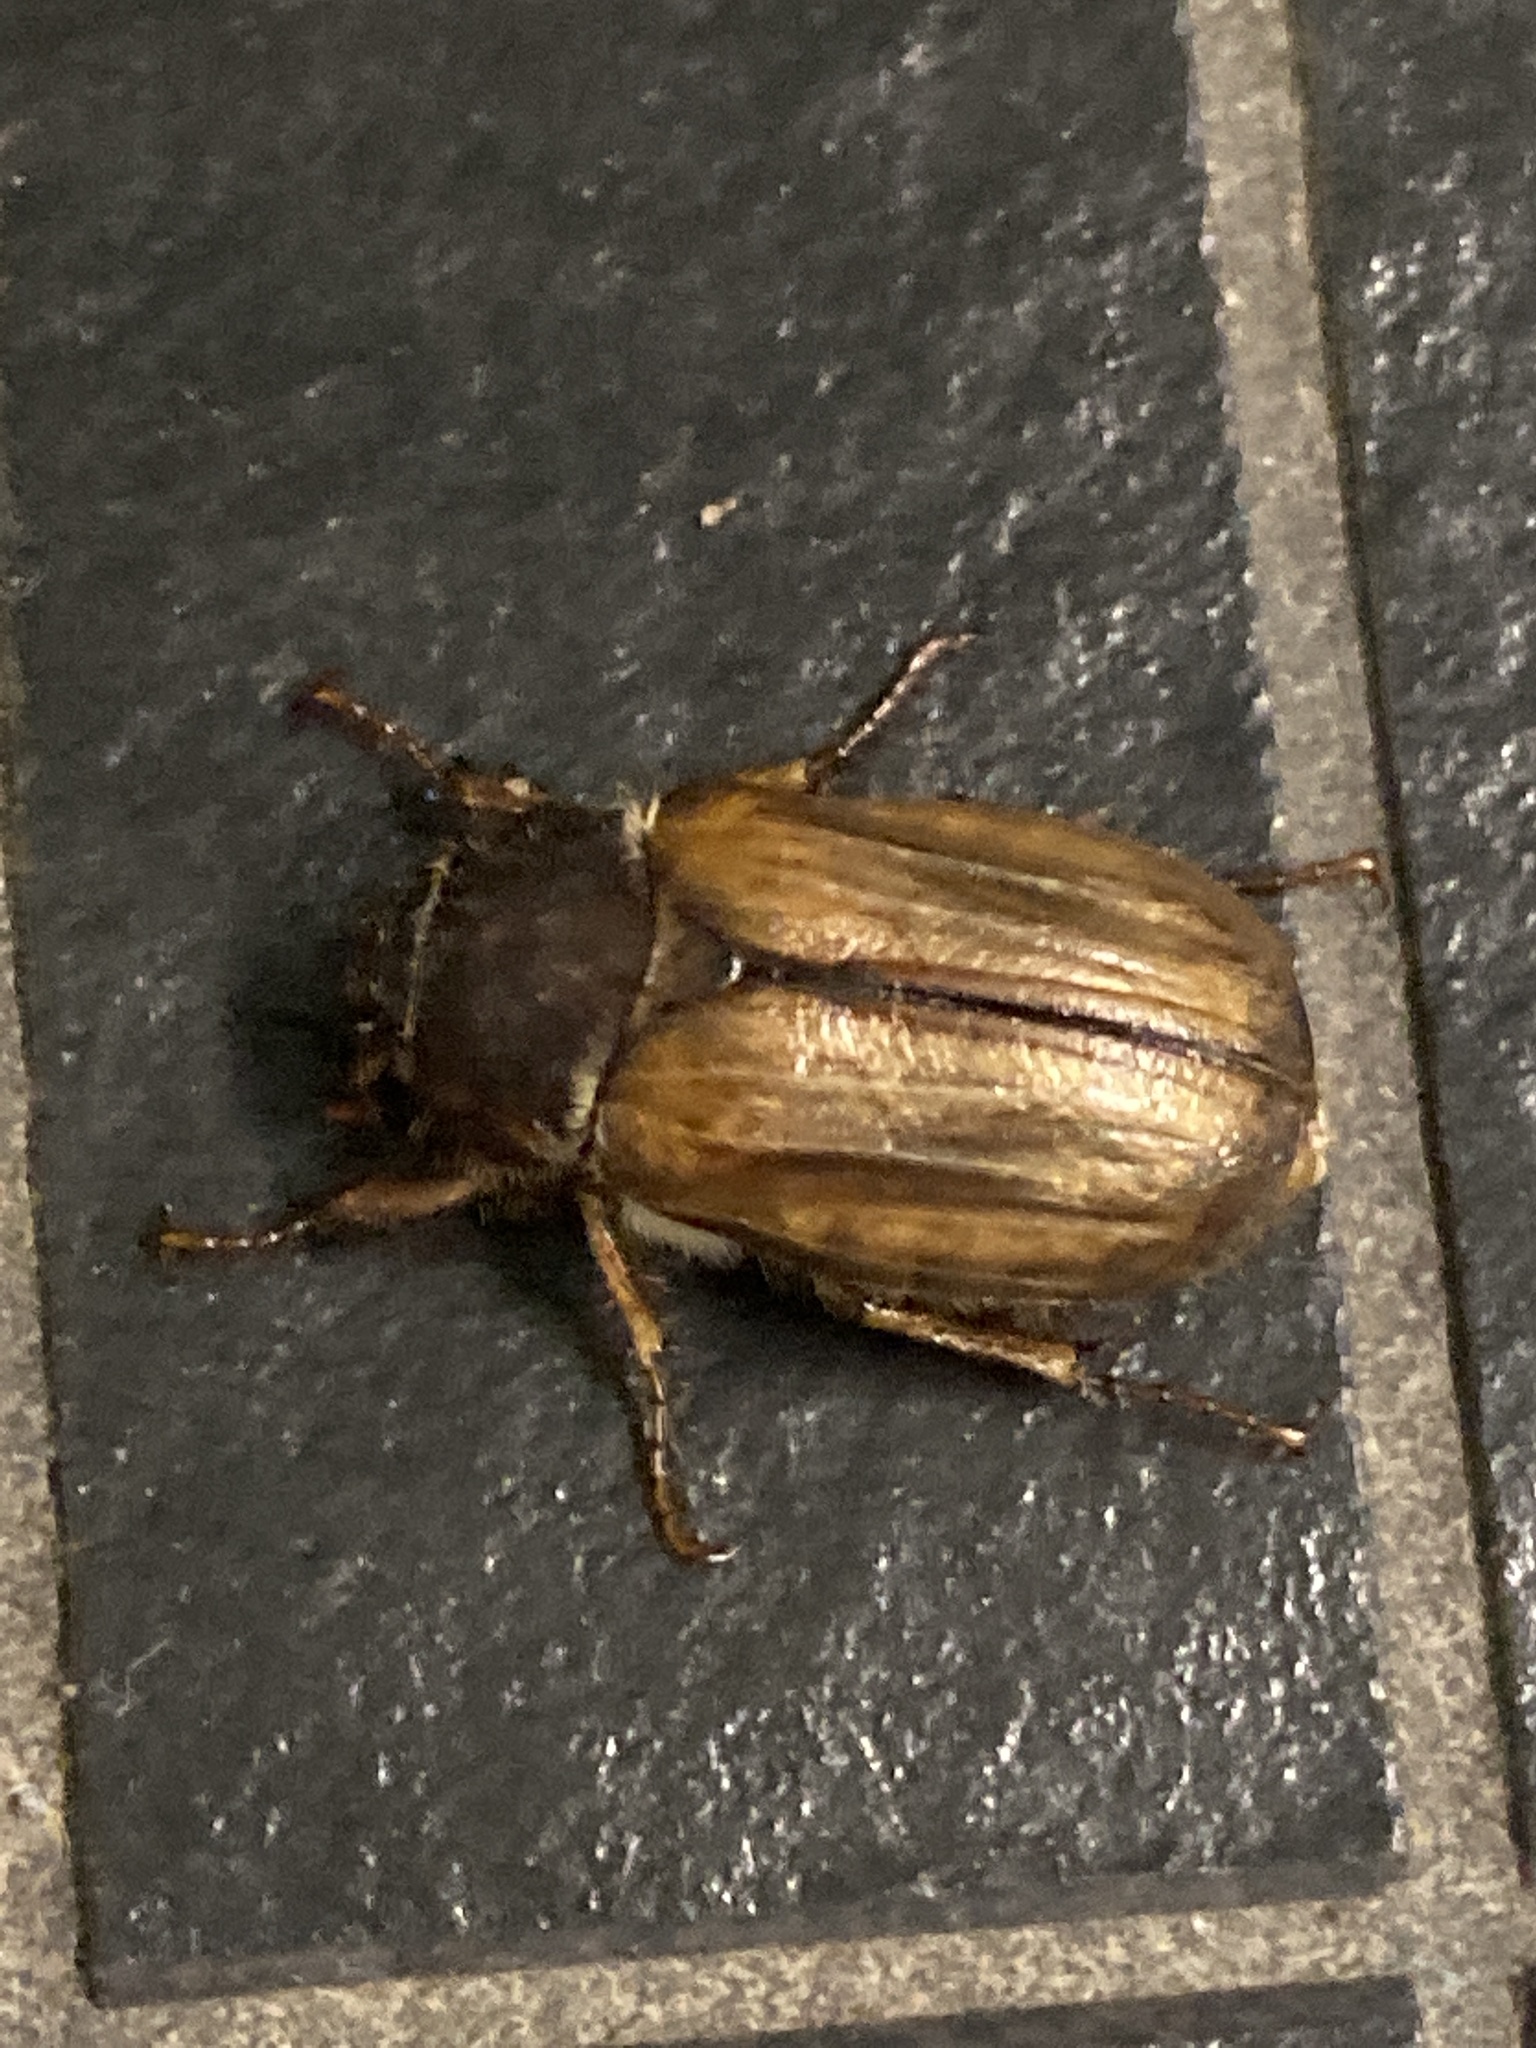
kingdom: Animalia
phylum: Arthropoda
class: Insecta
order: Coleoptera
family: Scarabaeidae
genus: Amphimallon
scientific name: Amphimallon solstitiale
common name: Summer chafer
